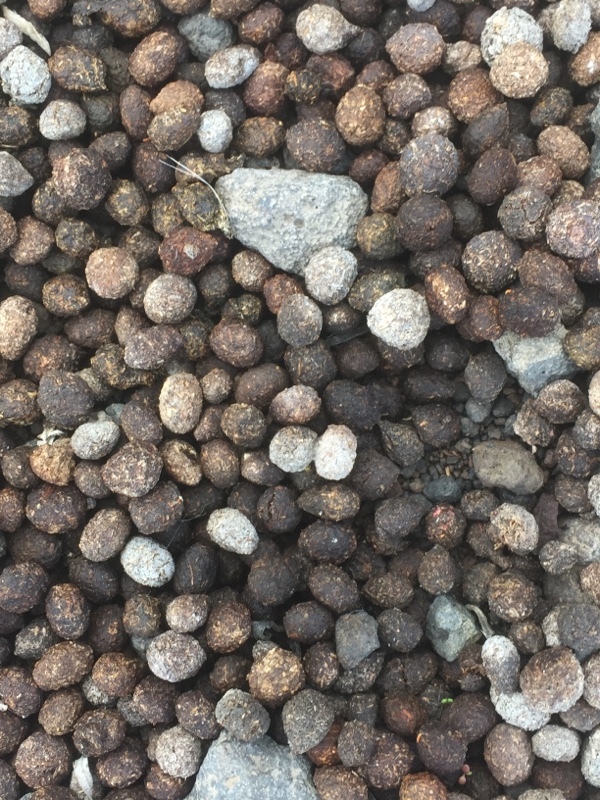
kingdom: Animalia
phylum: Chordata
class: Mammalia
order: Lagomorpha
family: Leporidae
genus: Oryctolagus
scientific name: Oryctolagus cuniculus
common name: European rabbit
